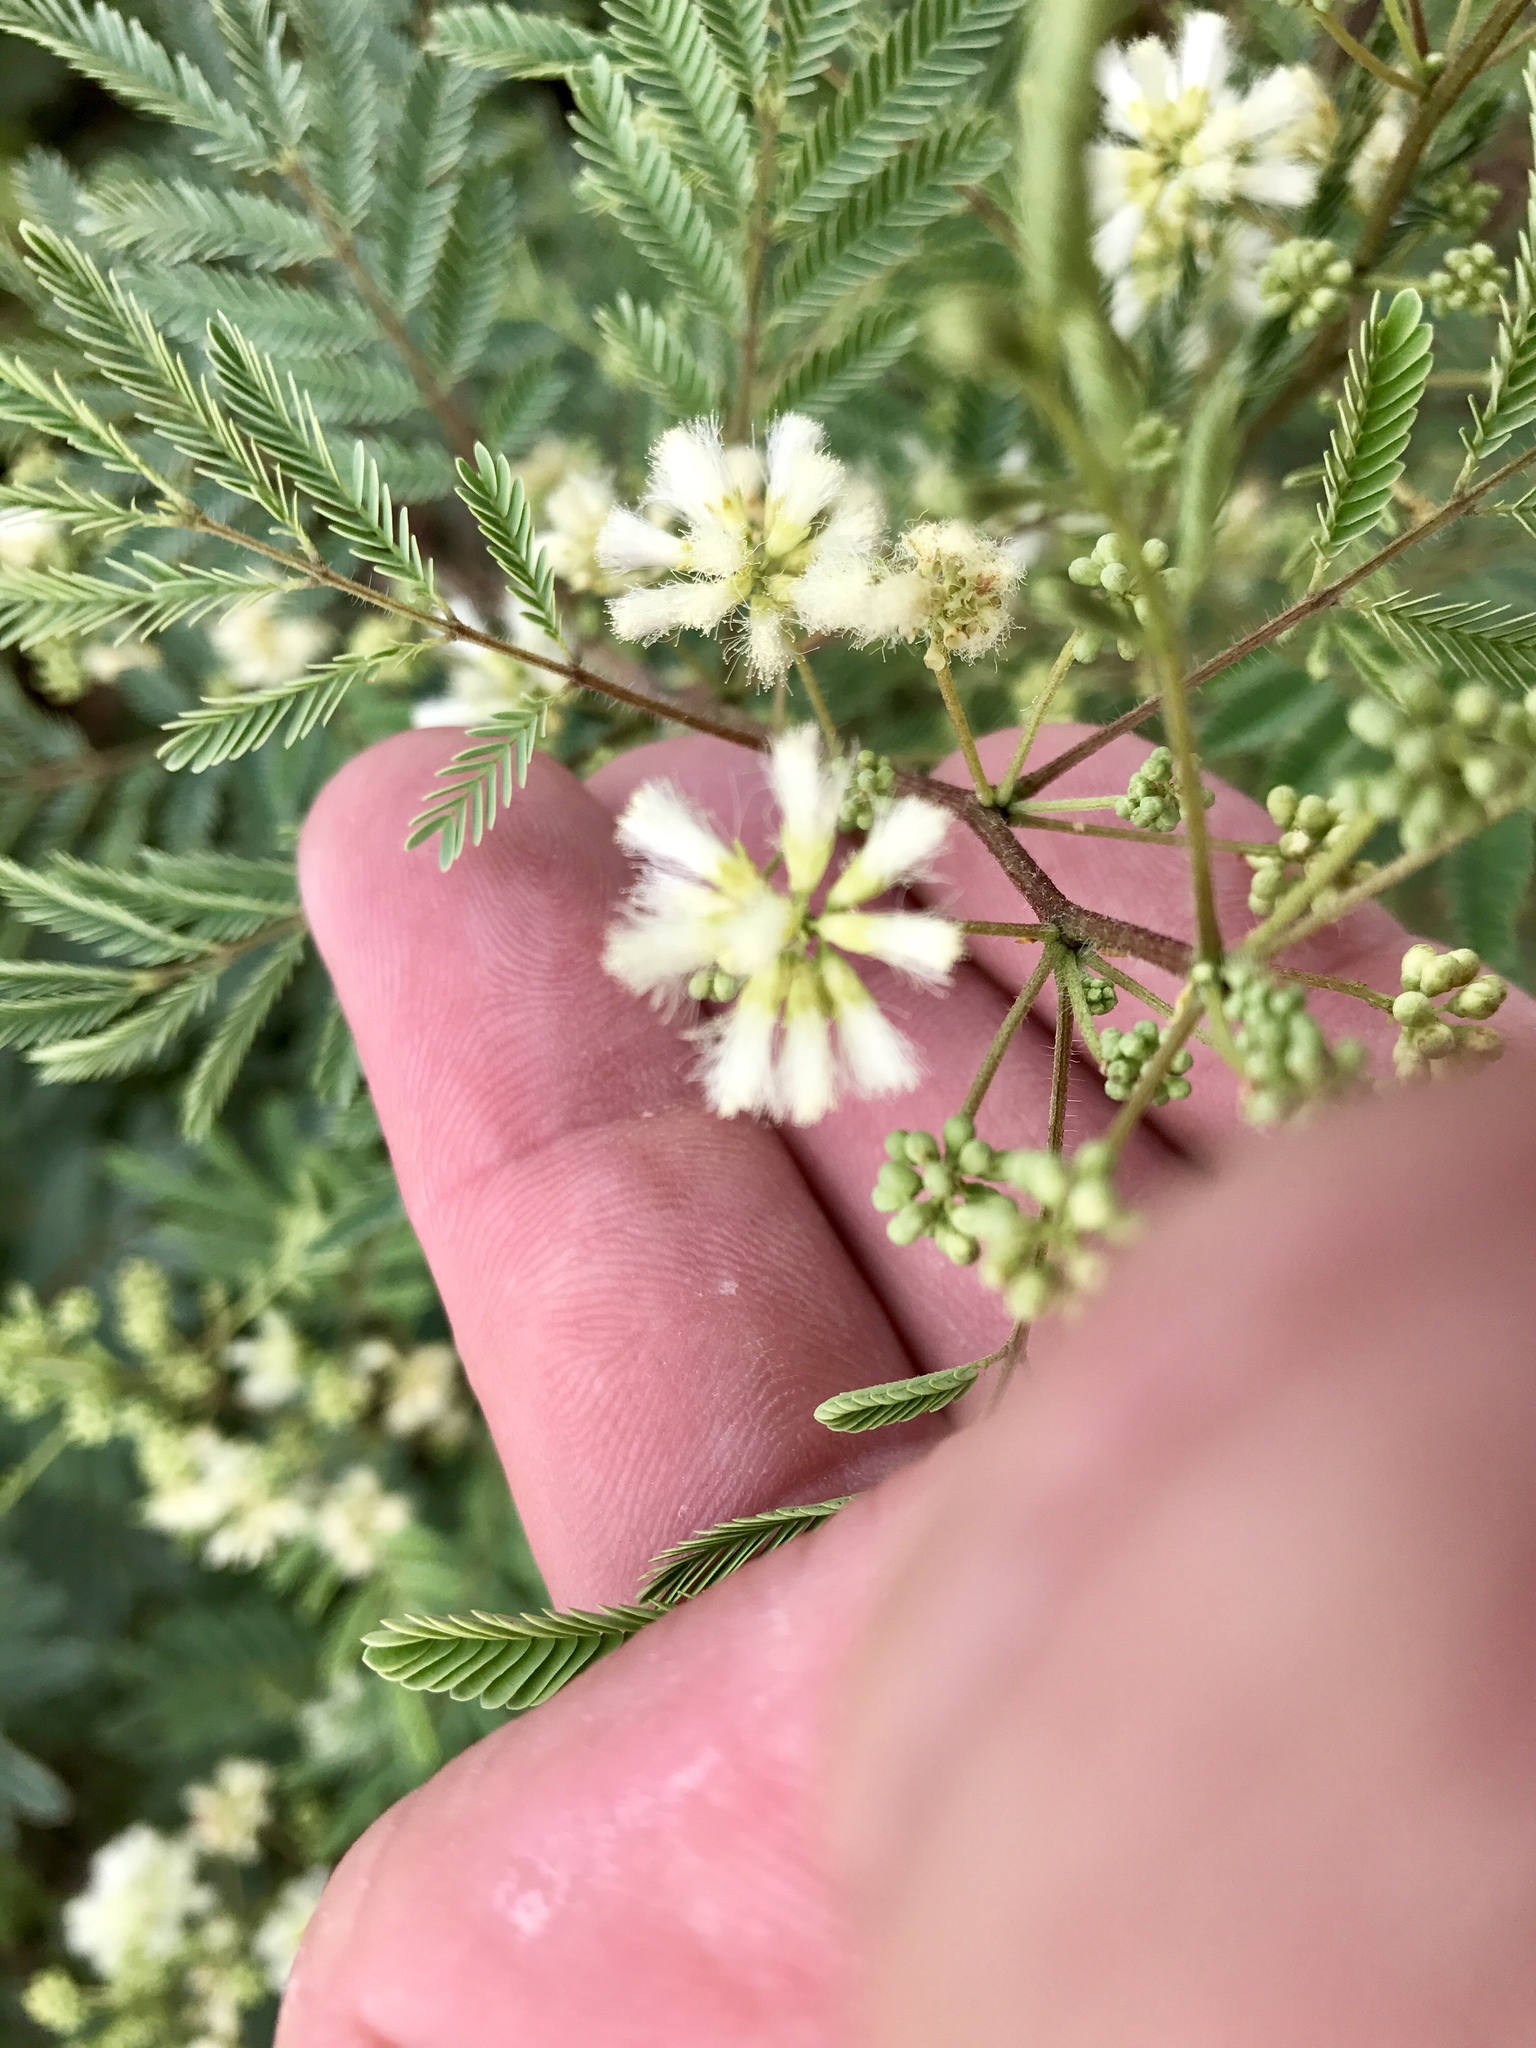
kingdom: Plantae
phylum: Tracheophyta
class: Magnoliopsida
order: Fabales
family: Fabaceae
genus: Acaciella
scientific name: Acaciella angustissima
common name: Prairie acacia
